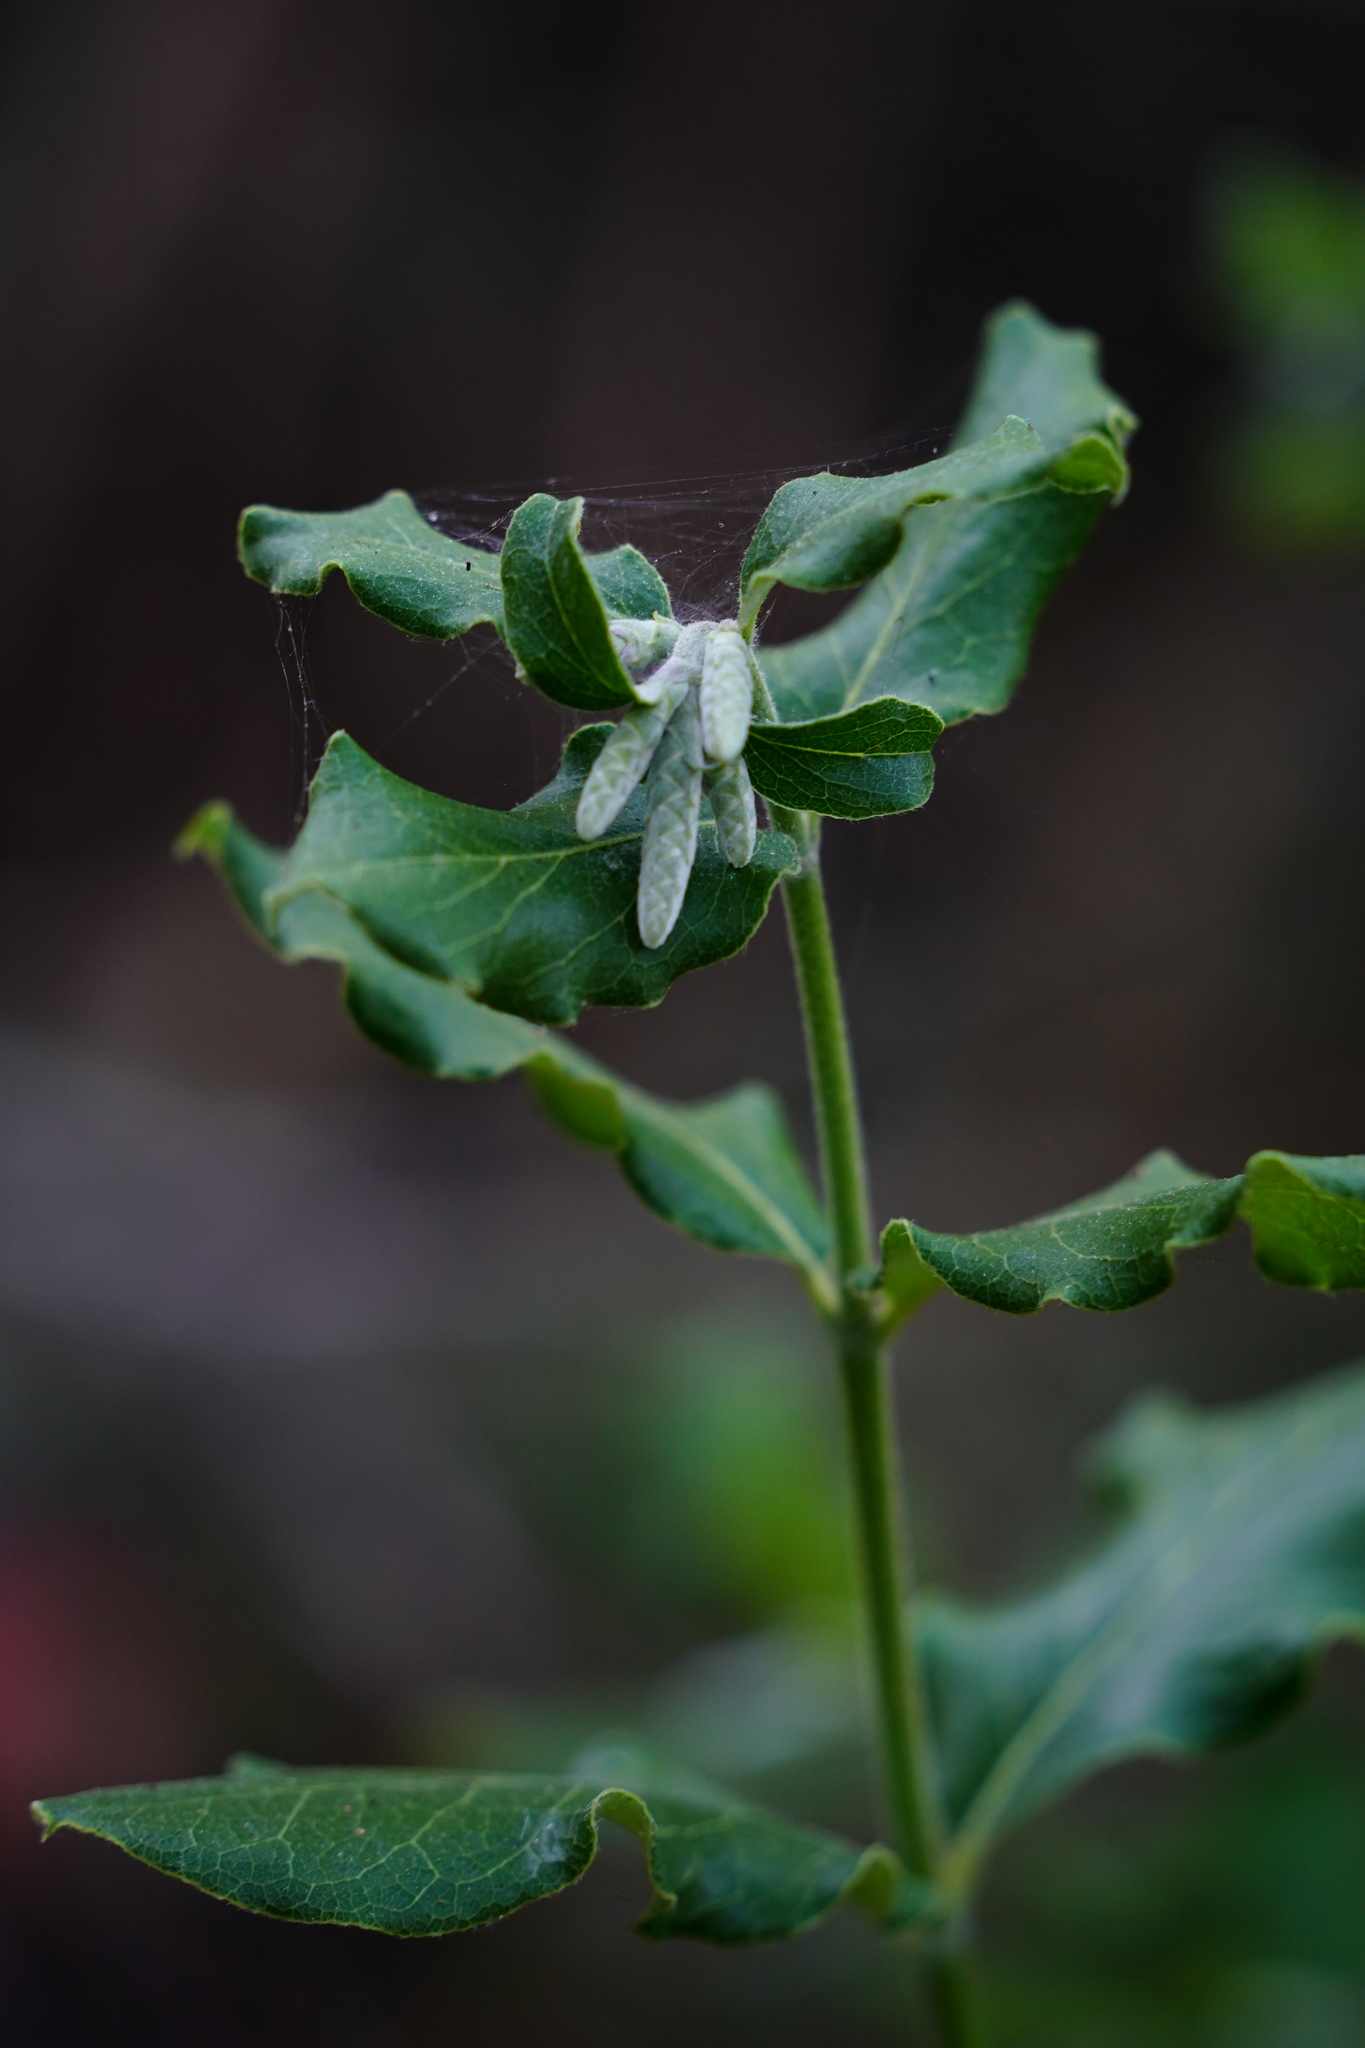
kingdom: Plantae
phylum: Tracheophyta
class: Magnoliopsida
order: Garryales
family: Garryaceae
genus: Garrya
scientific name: Garrya elliptica
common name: Silk-tassel
